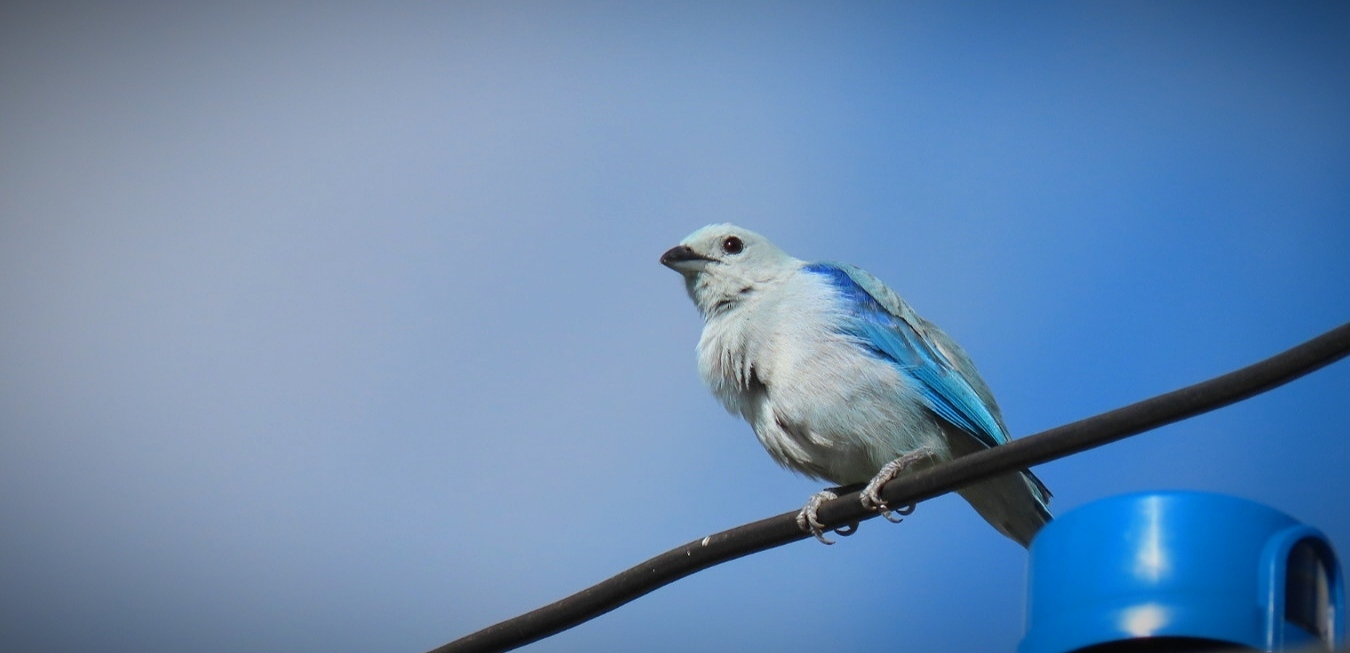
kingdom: Animalia
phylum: Chordata
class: Aves
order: Passeriformes
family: Thraupidae
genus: Thraupis
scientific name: Thraupis episcopus
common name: Blue-grey tanager
